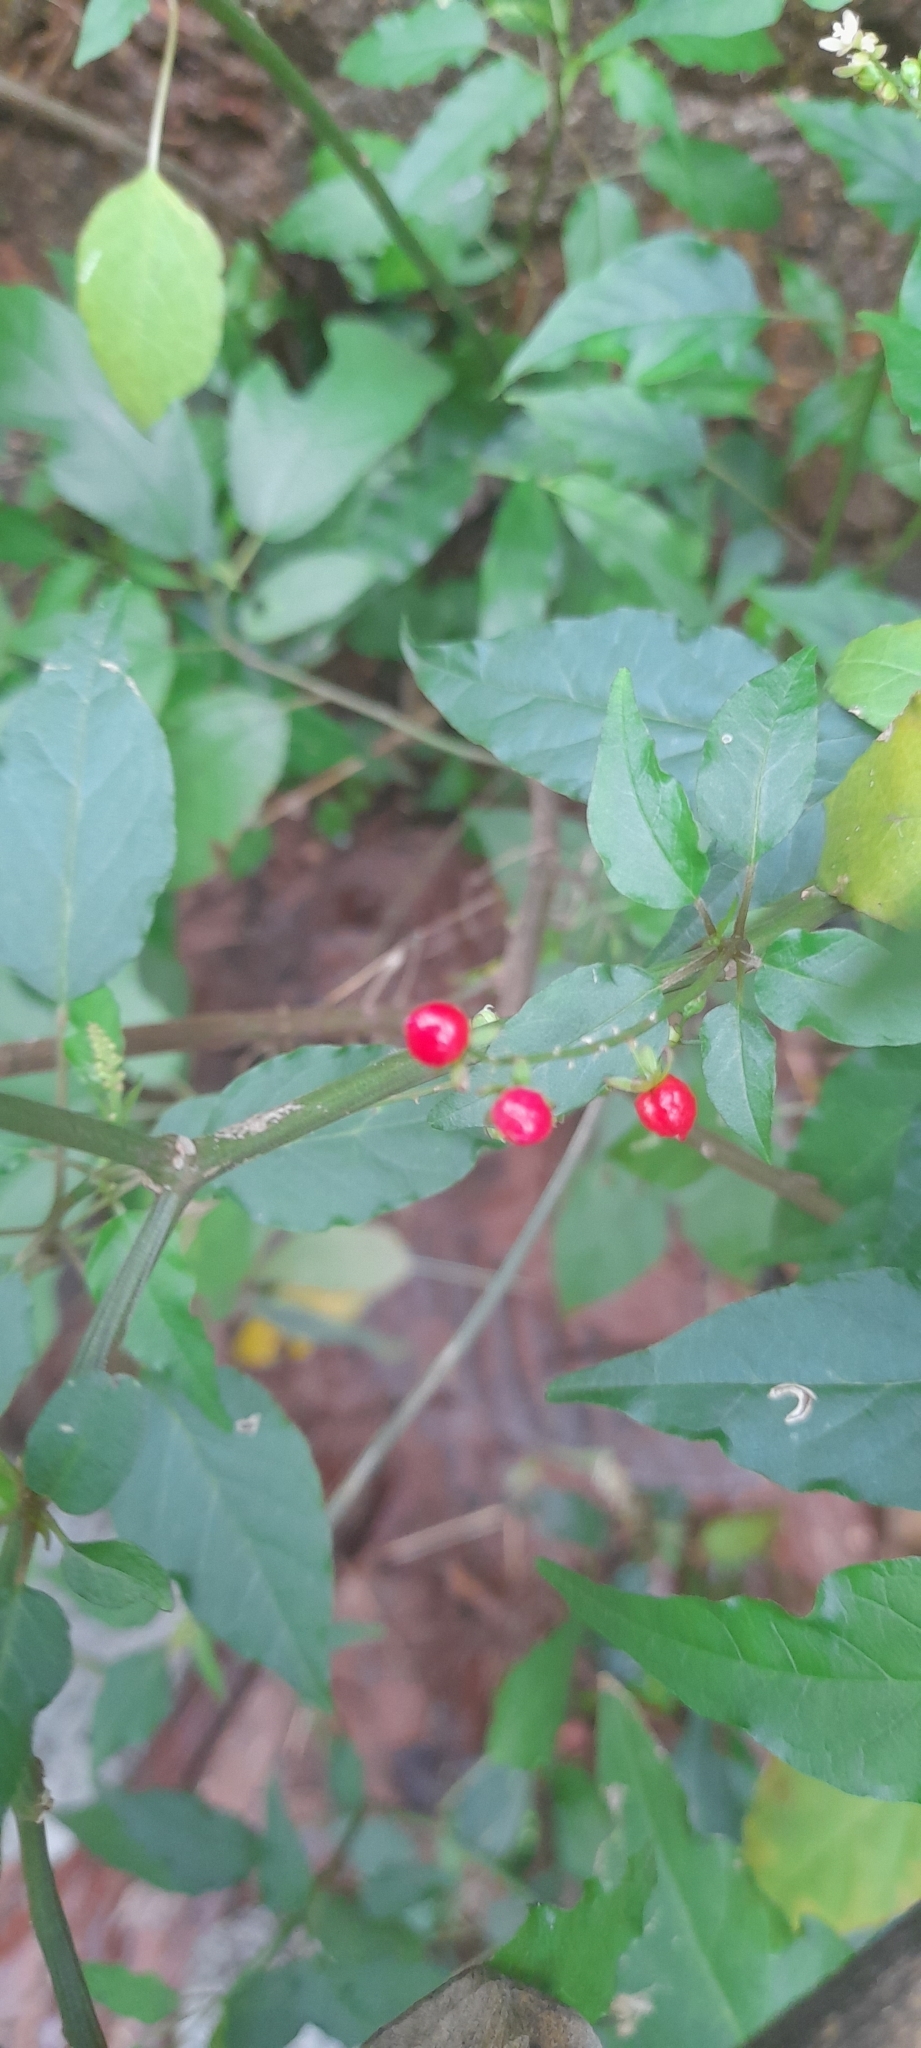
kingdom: Plantae
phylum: Tracheophyta
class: Magnoliopsida
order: Caryophyllales
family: Phytolaccaceae
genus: Rivina
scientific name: Rivina humilis
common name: Rougeplant
